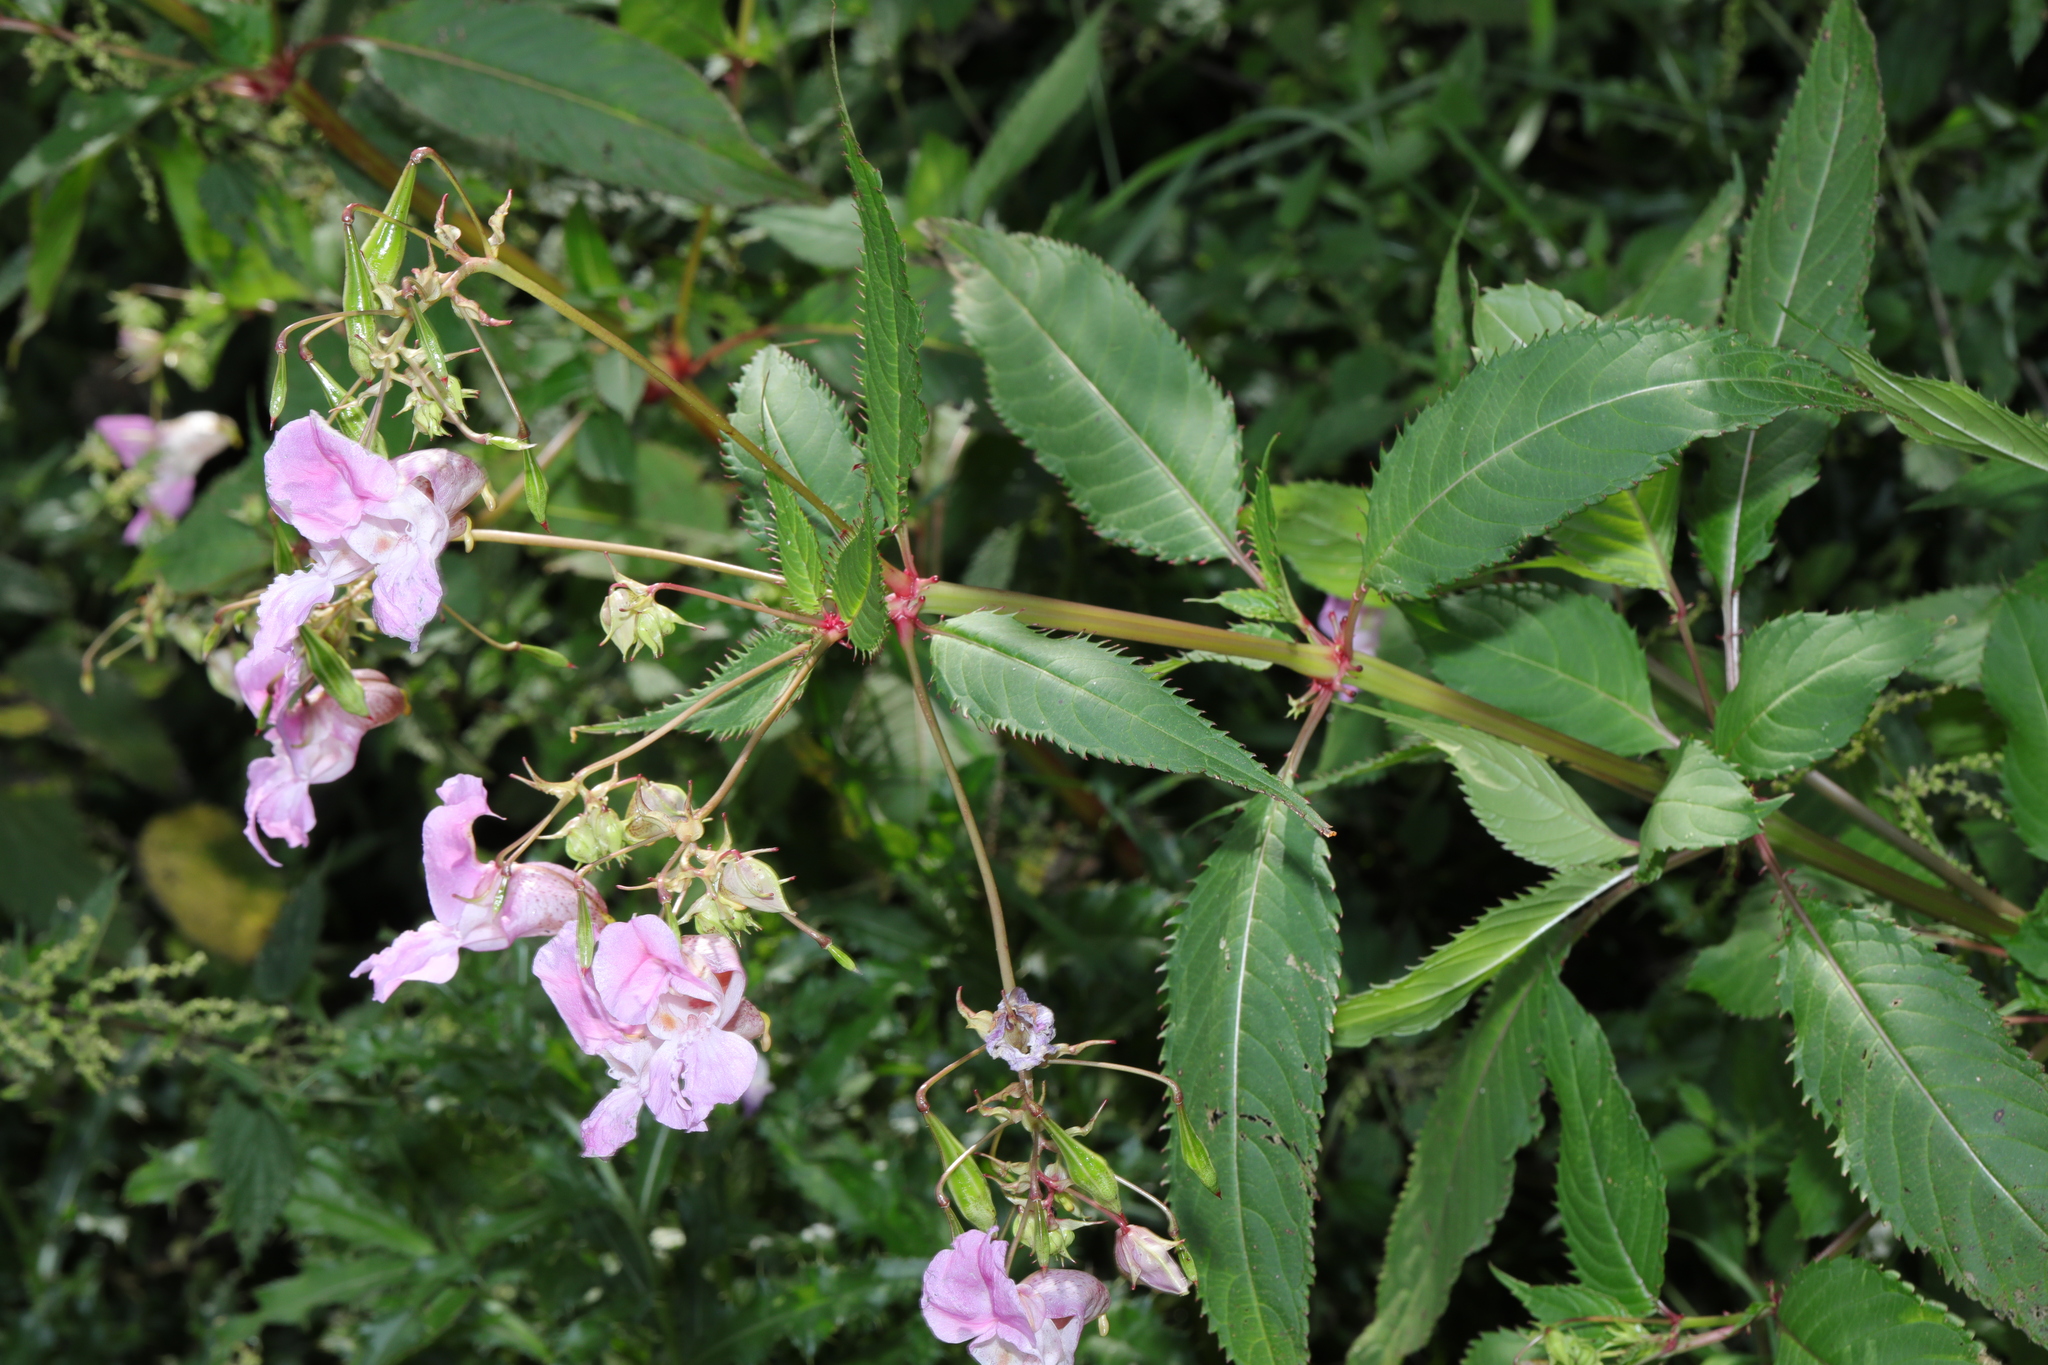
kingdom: Plantae
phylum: Tracheophyta
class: Magnoliopsida
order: Ericales
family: Balsaminaceae
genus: Impatiens
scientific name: Impatiens glandulifera
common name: Himalayan balsam
